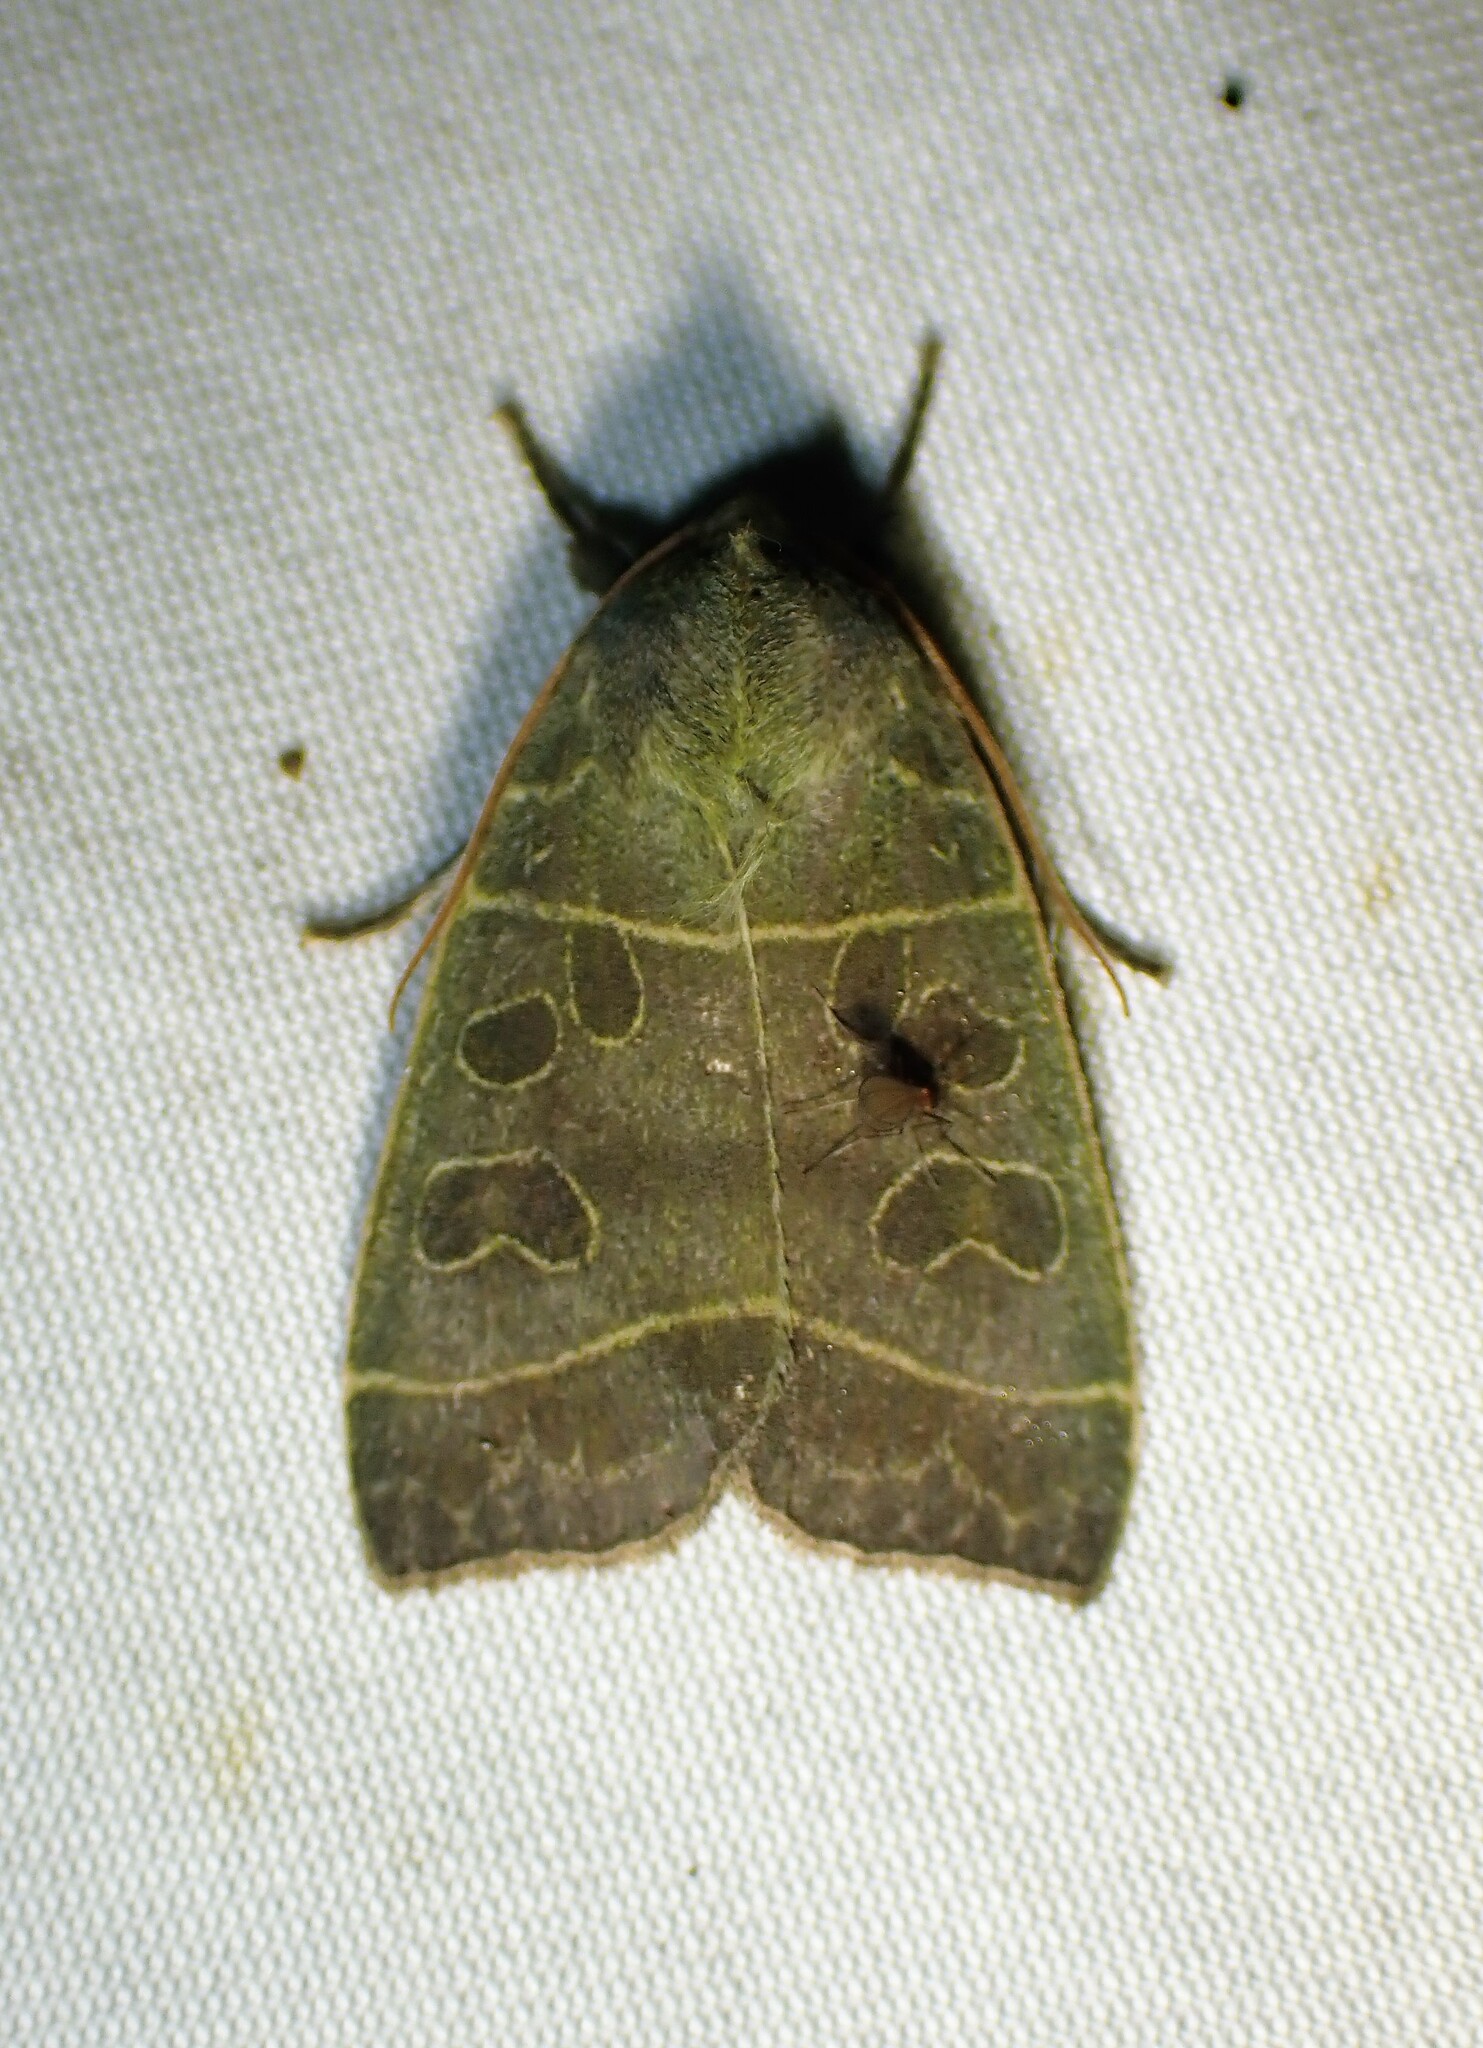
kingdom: Animalia
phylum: Arthropoda
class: Insecta
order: Lepidoptera
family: Noctuidae
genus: Ipimorpha
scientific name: Ipimorpha pleonectusa
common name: Even-lined sallow
